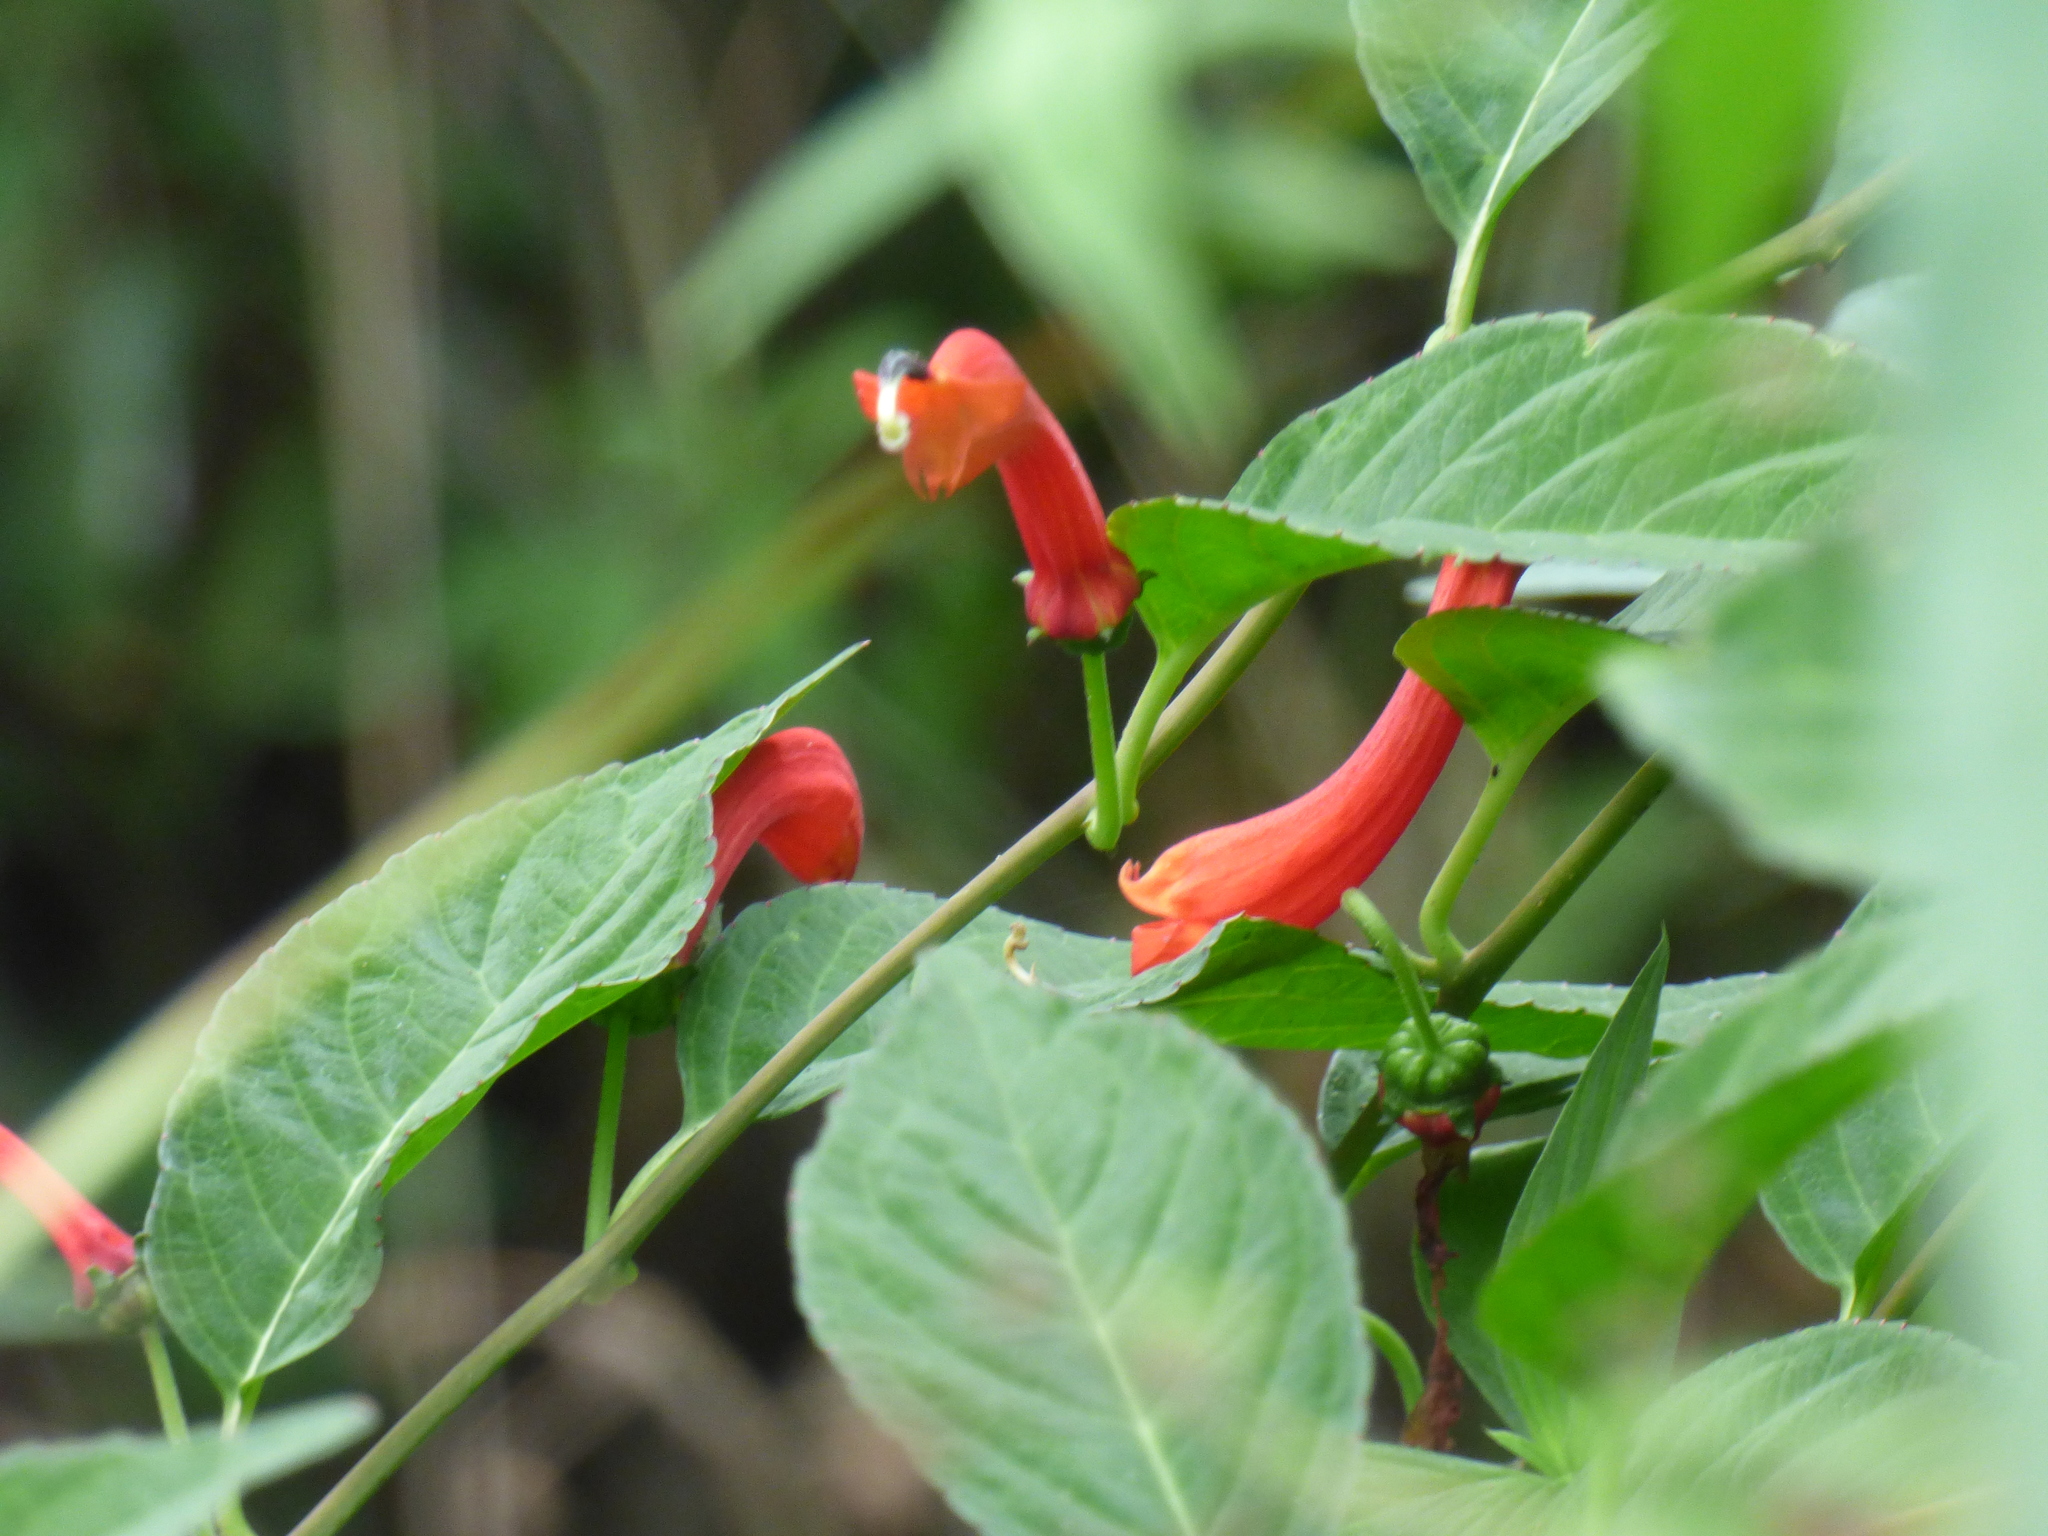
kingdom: Plantae
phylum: Tracheophyta
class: Magnoliopsida
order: Asterales
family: Campanulaceae
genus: Centropogon
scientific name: Centropogon trianae
